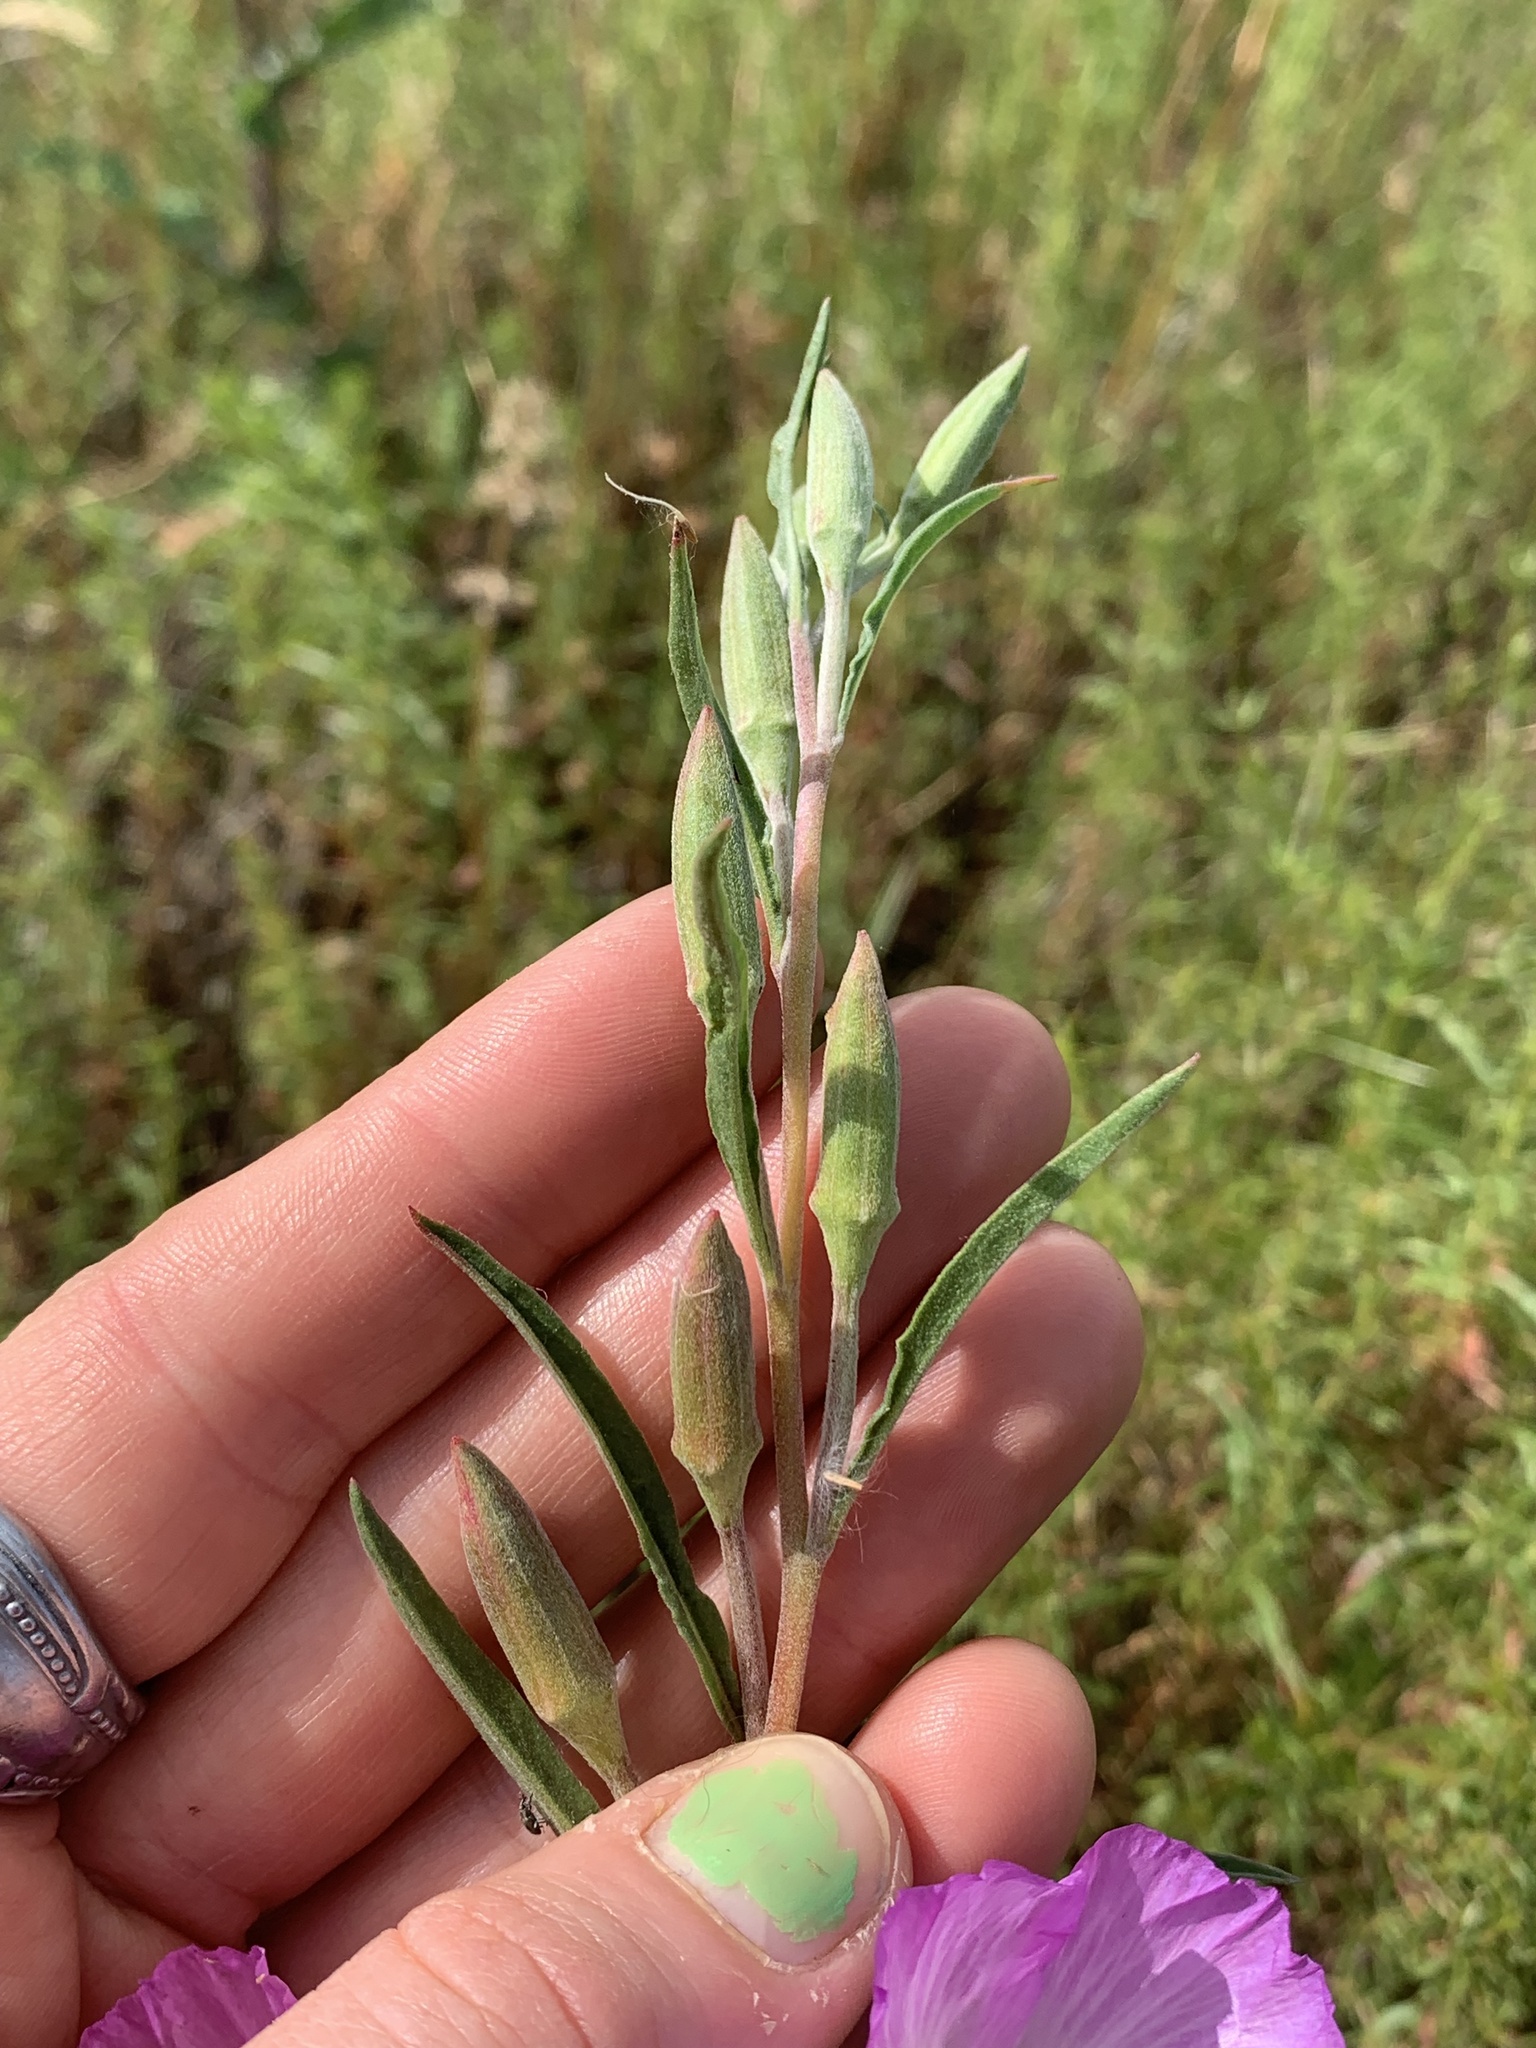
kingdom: Plantae
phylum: Tracheophyta
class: Magnoliopsida
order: Myrtales
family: Onagraceae
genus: Clarkia
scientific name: Clarkia amoena
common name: Godetia
